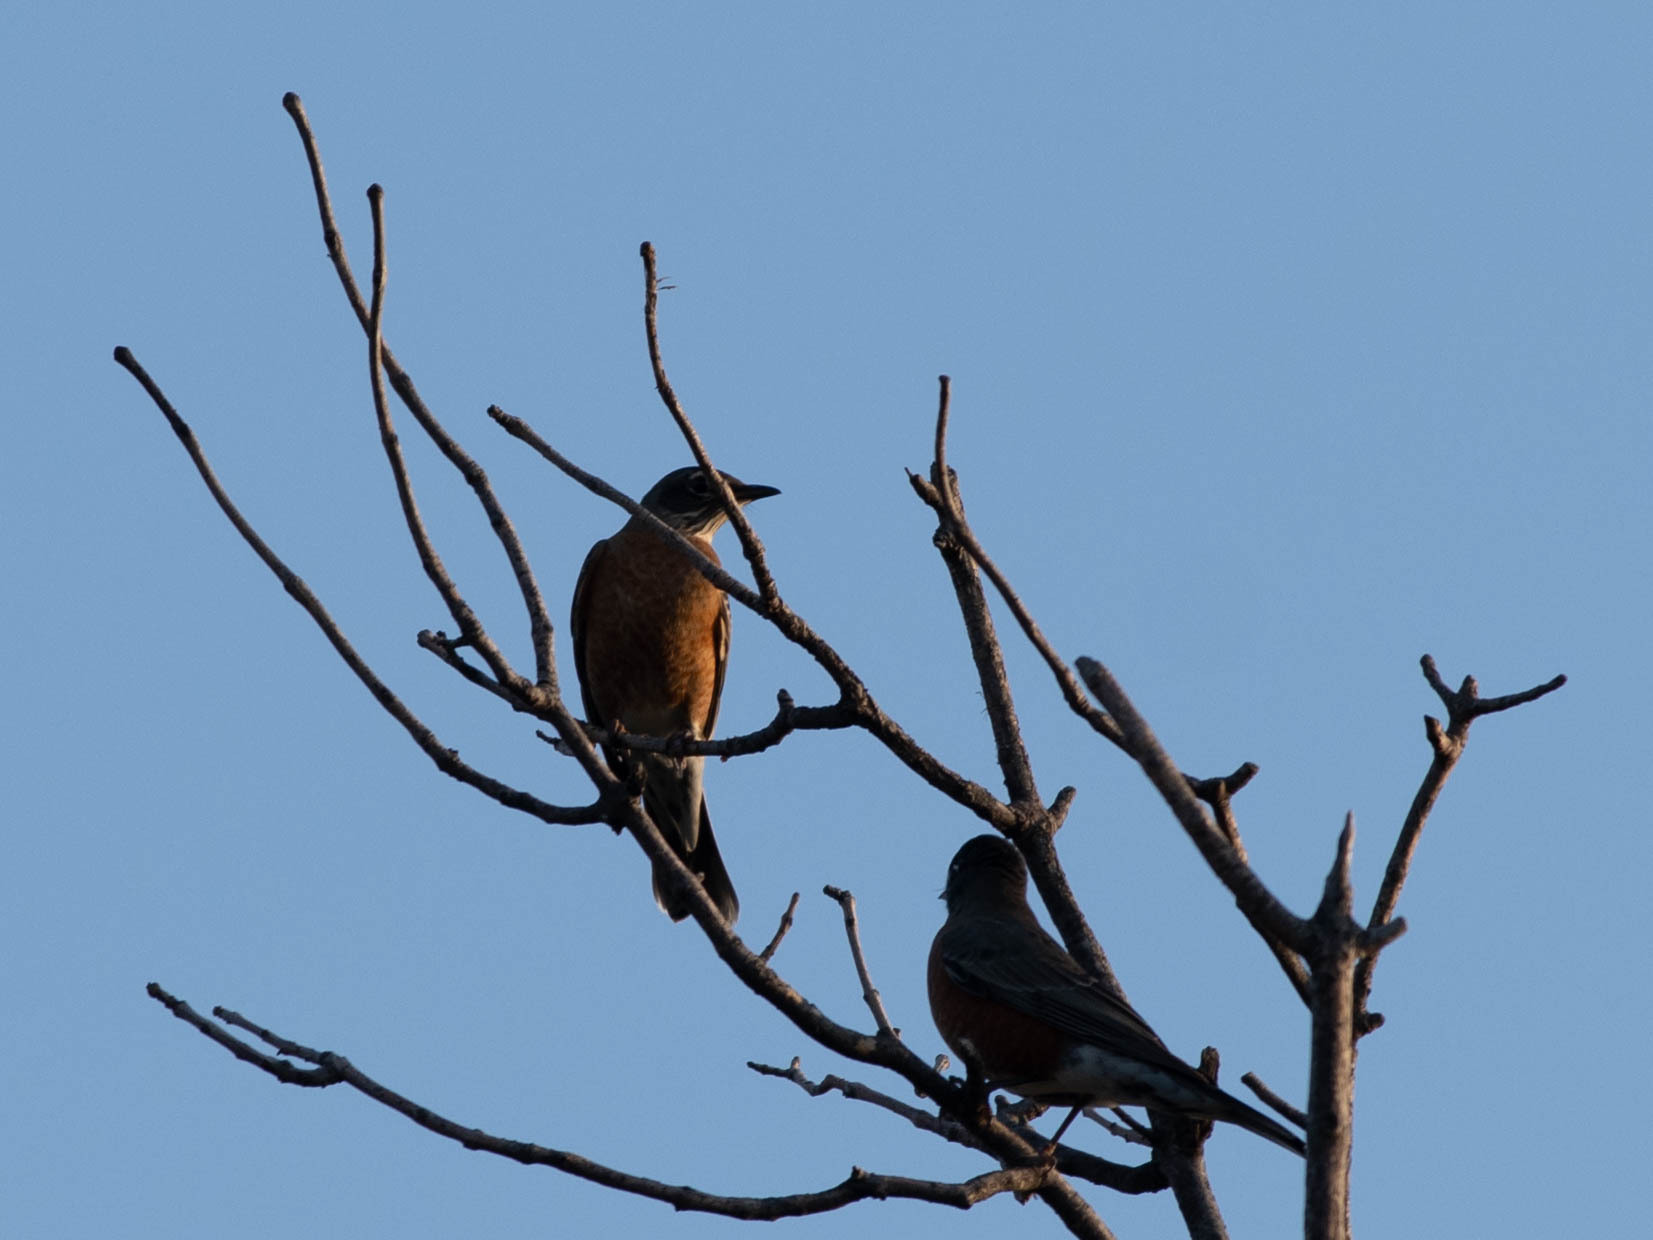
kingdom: Animalia
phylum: Chordata
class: Aves
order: Passeriformes
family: Turdidae
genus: Turdus
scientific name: Turdus migratorius
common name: American robin
